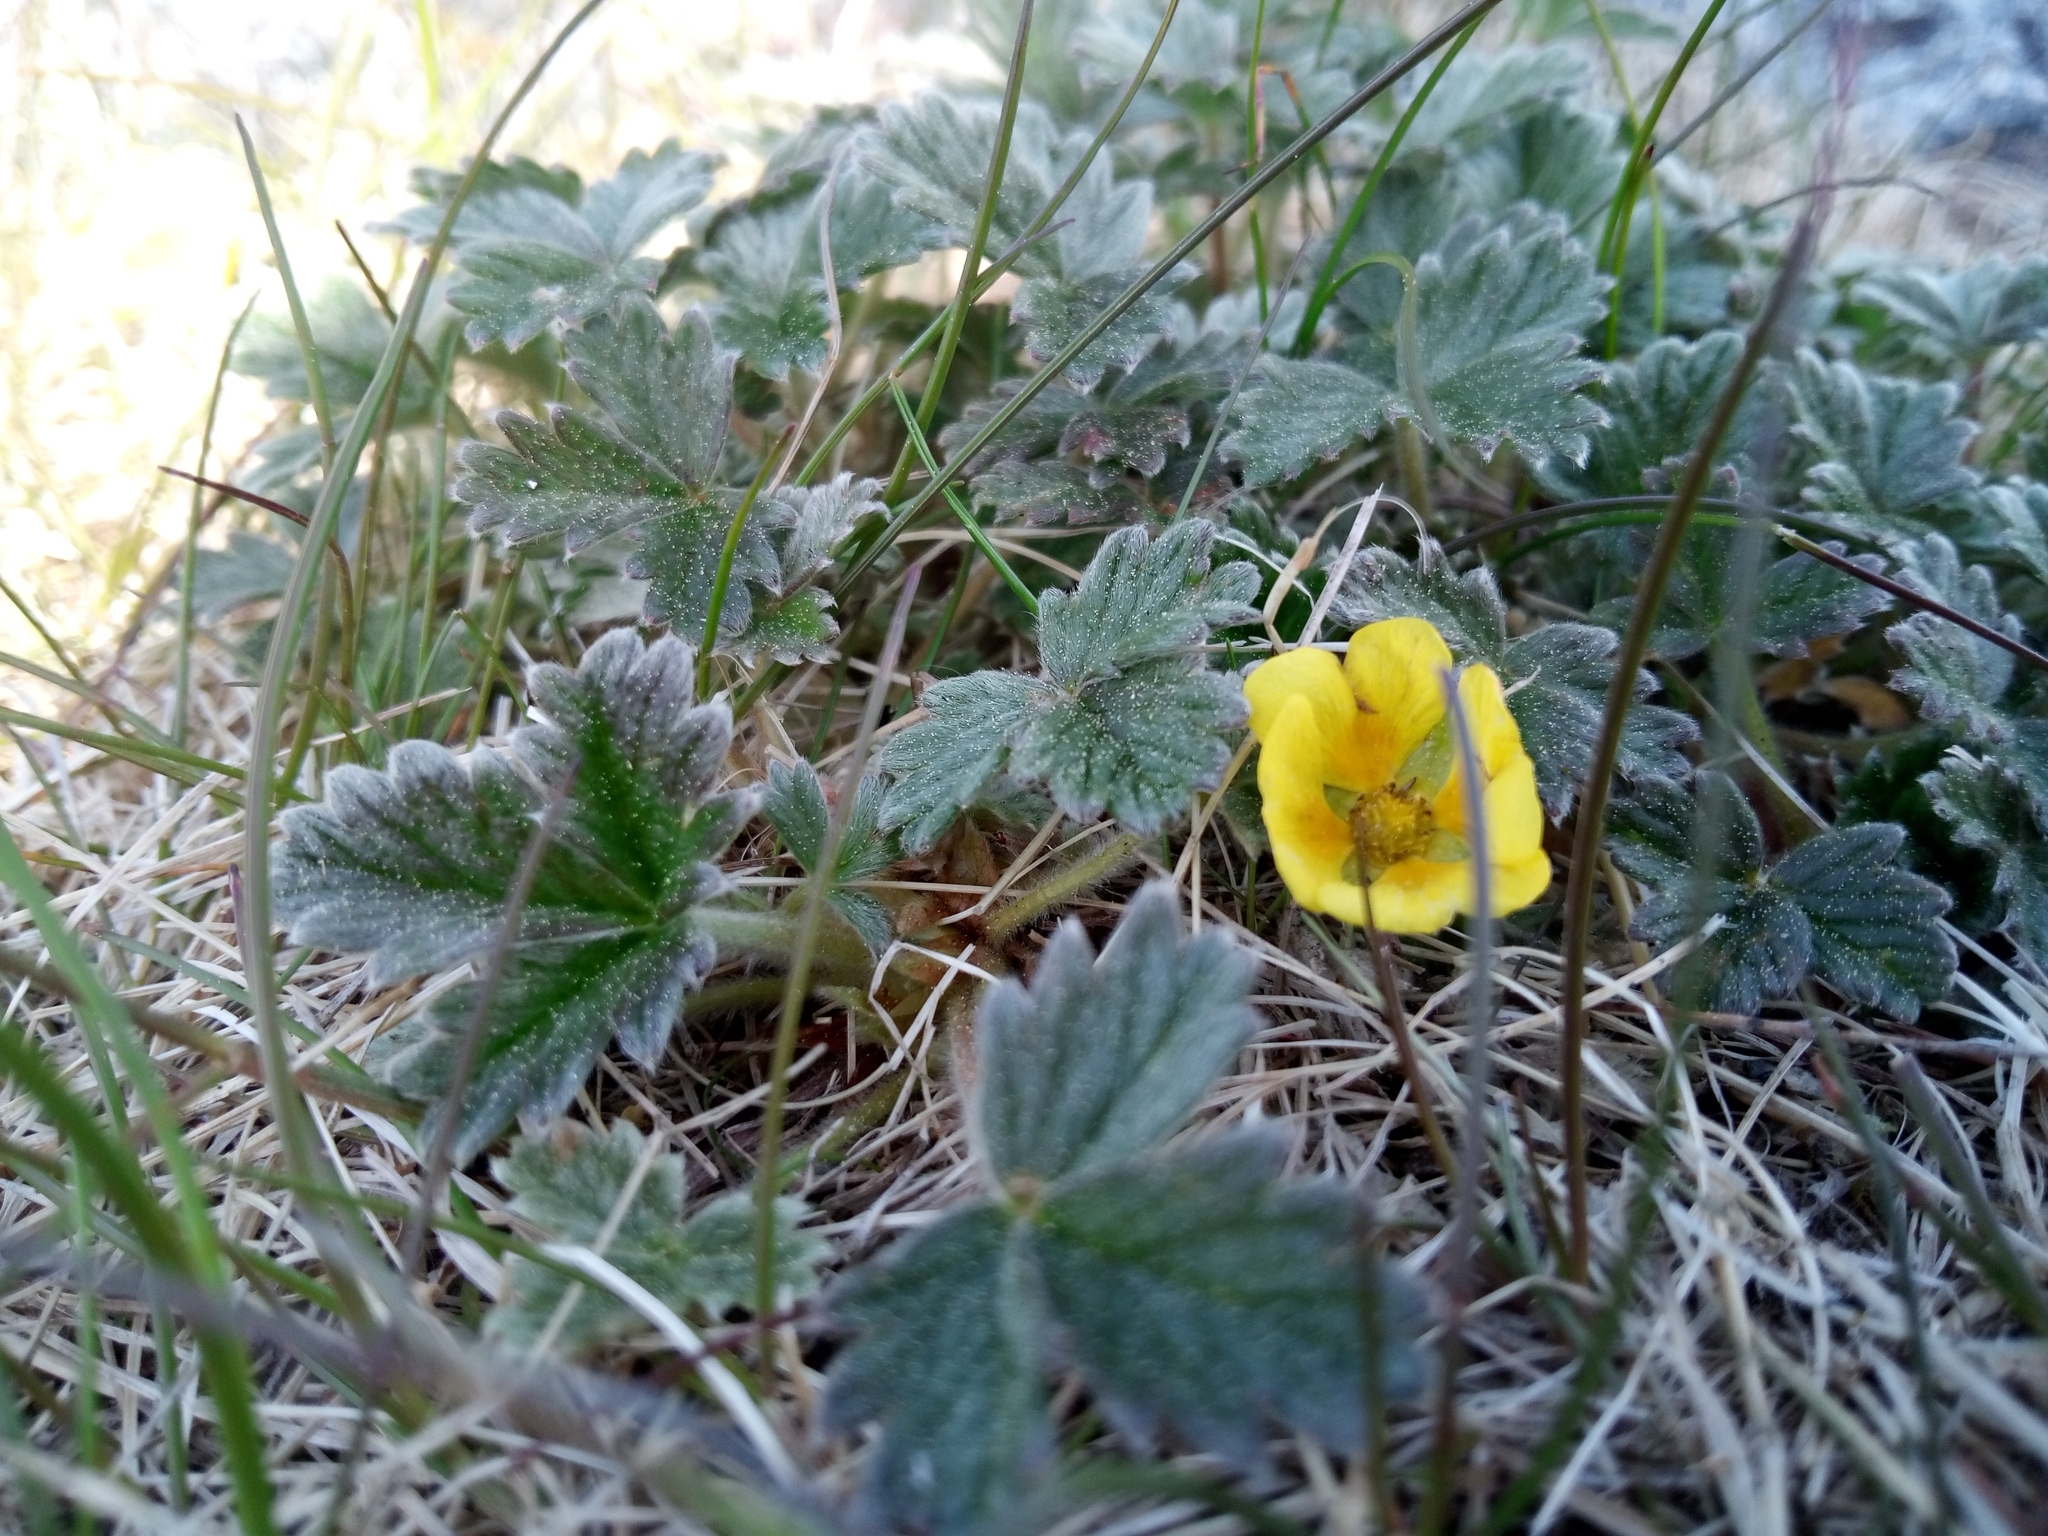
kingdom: Plantae
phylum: Tracheophyta
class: Magnoliopsida
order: Rosales
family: Rosaceae
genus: Potentilla
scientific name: Potentilla villosa
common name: Northern cinquefoil
